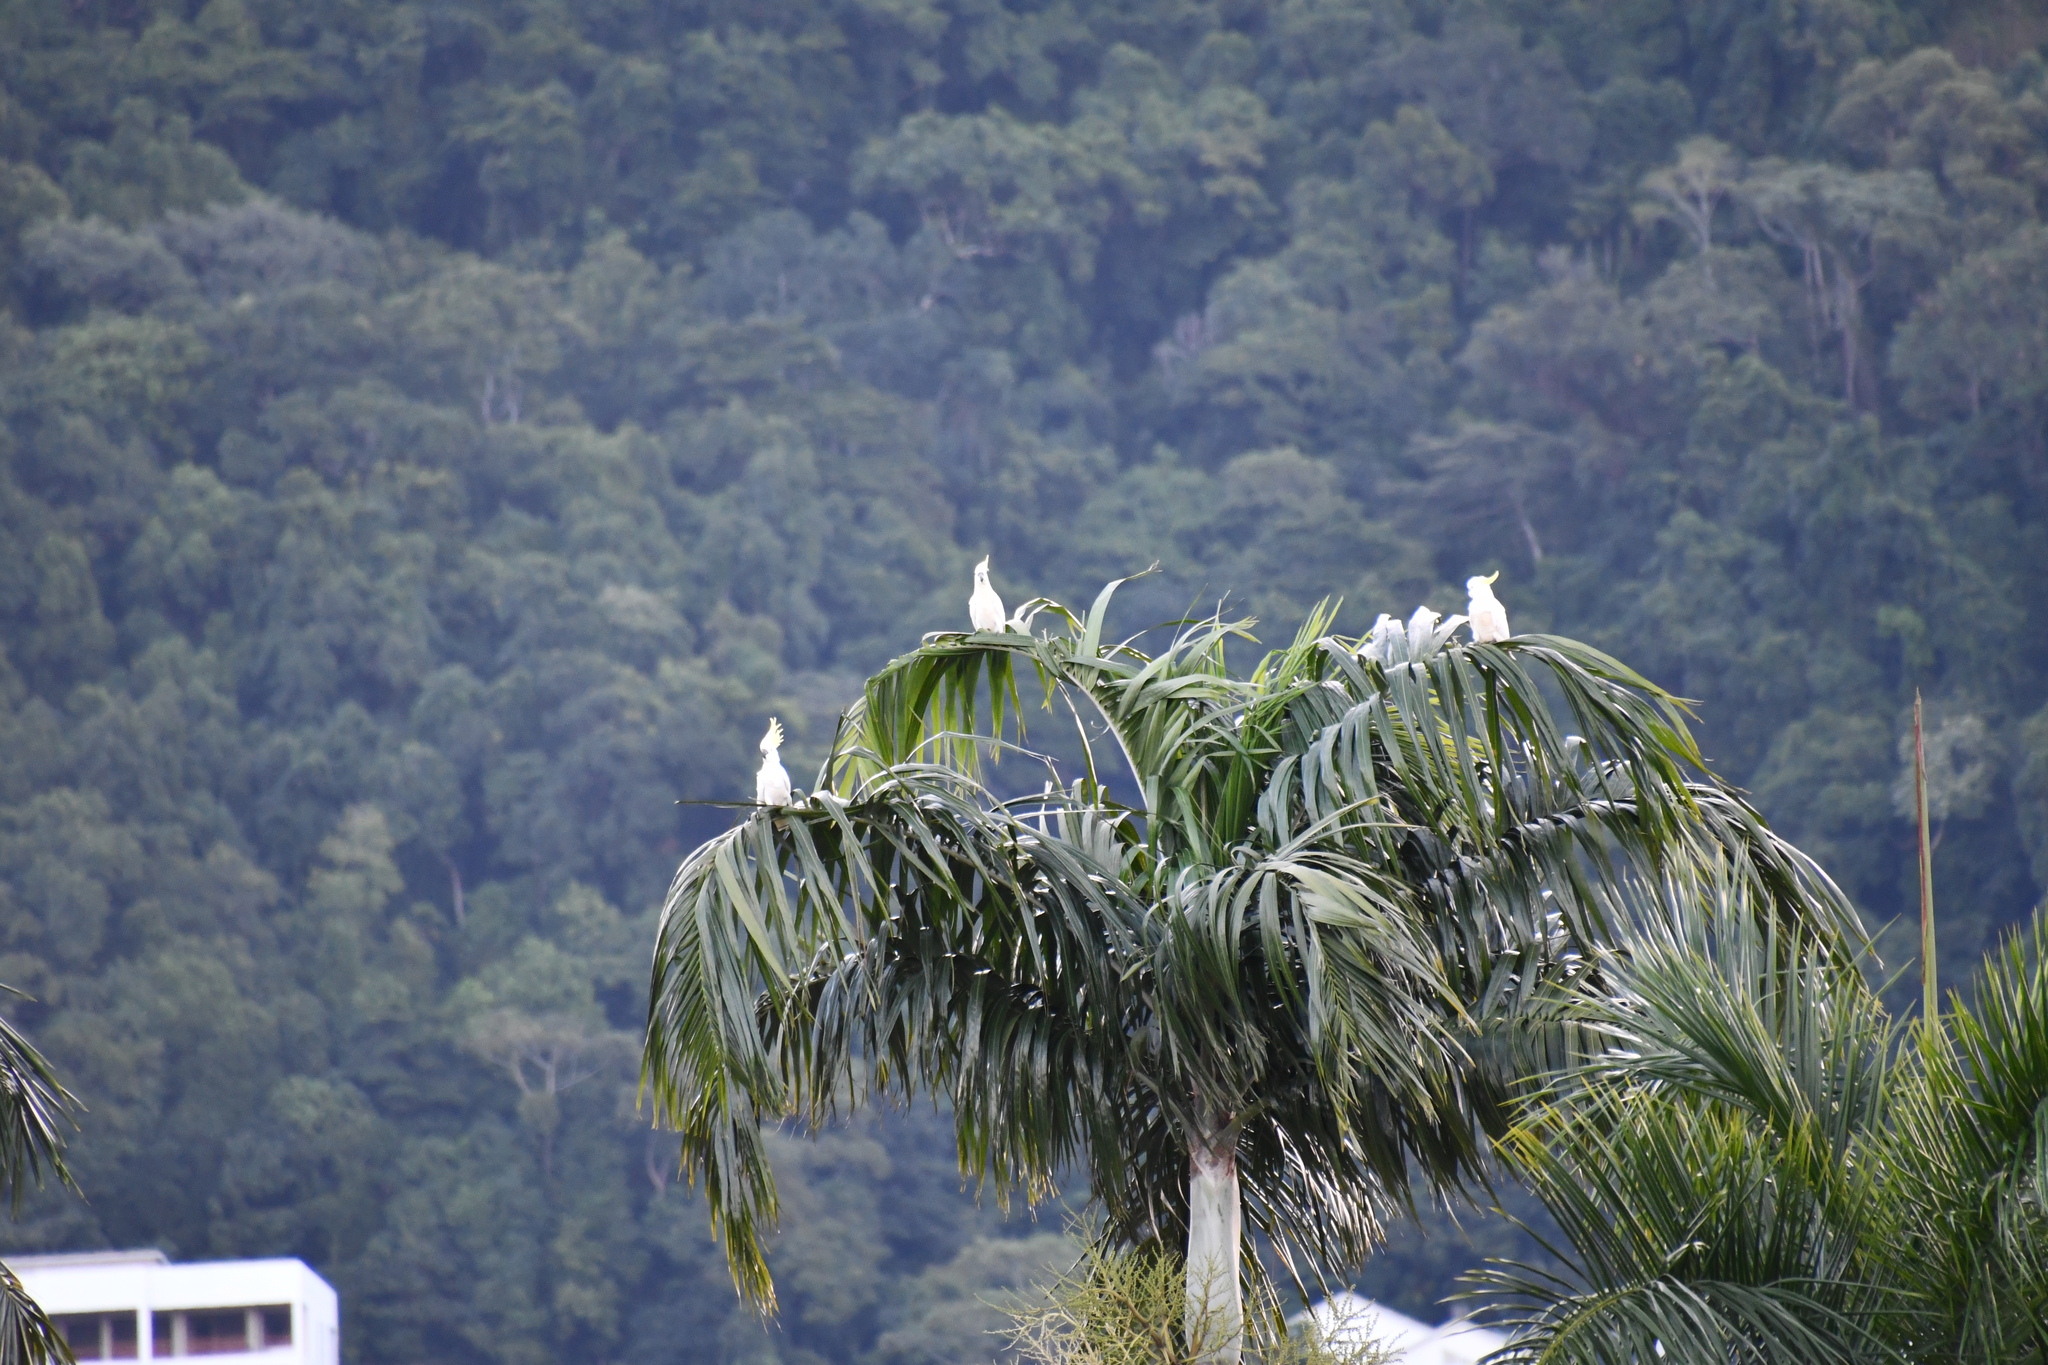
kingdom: Animalia
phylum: Chordata
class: Aves
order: Psittaciformes
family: Psittacidae
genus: Cacatua
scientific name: Cacatua galerita
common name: Sulphur-crested cockatoo
